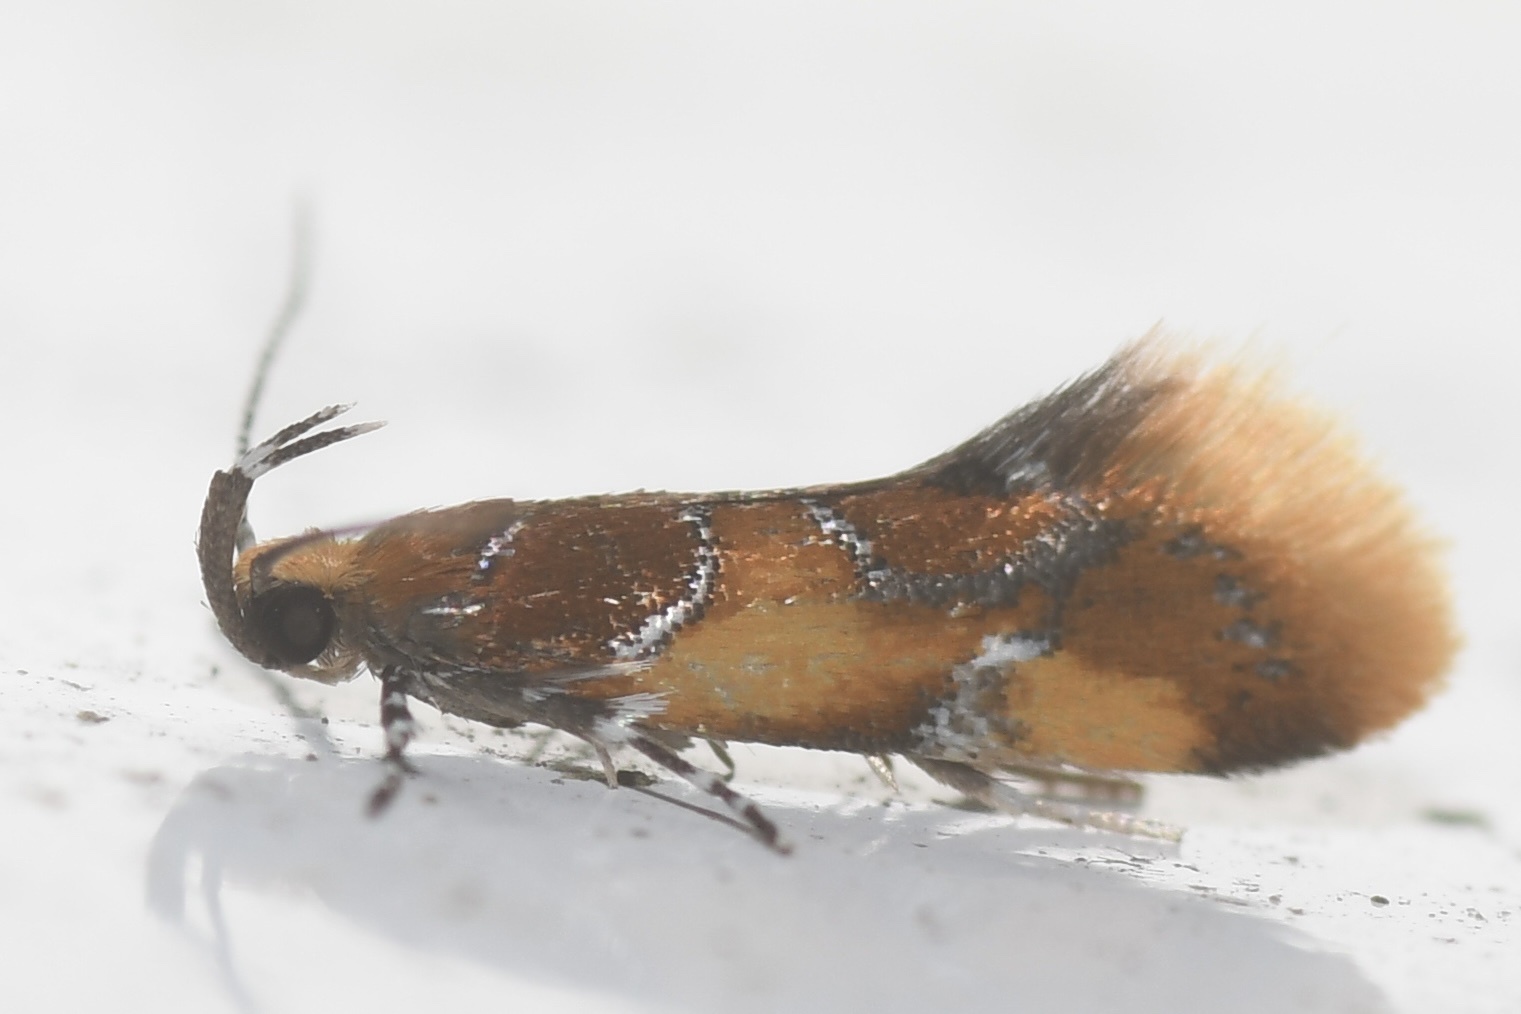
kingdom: Animalia
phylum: Arthropoda
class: Insecta
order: Lepidoptera
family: Oecophoridae
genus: Callima
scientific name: Callima argenticinctella
